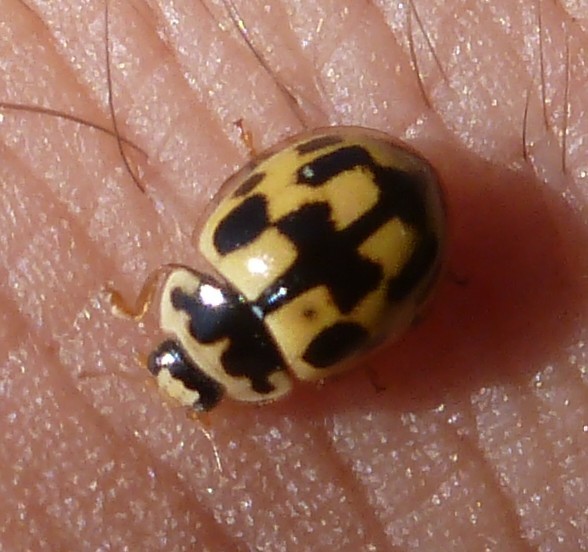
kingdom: Animalia
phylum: Arthropoda
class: Insecta
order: Coleoptera
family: Coccinellidae
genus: Propylaea
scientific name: Propylaea quatuordecimpunctata
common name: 14-spotted ladybird beetle
